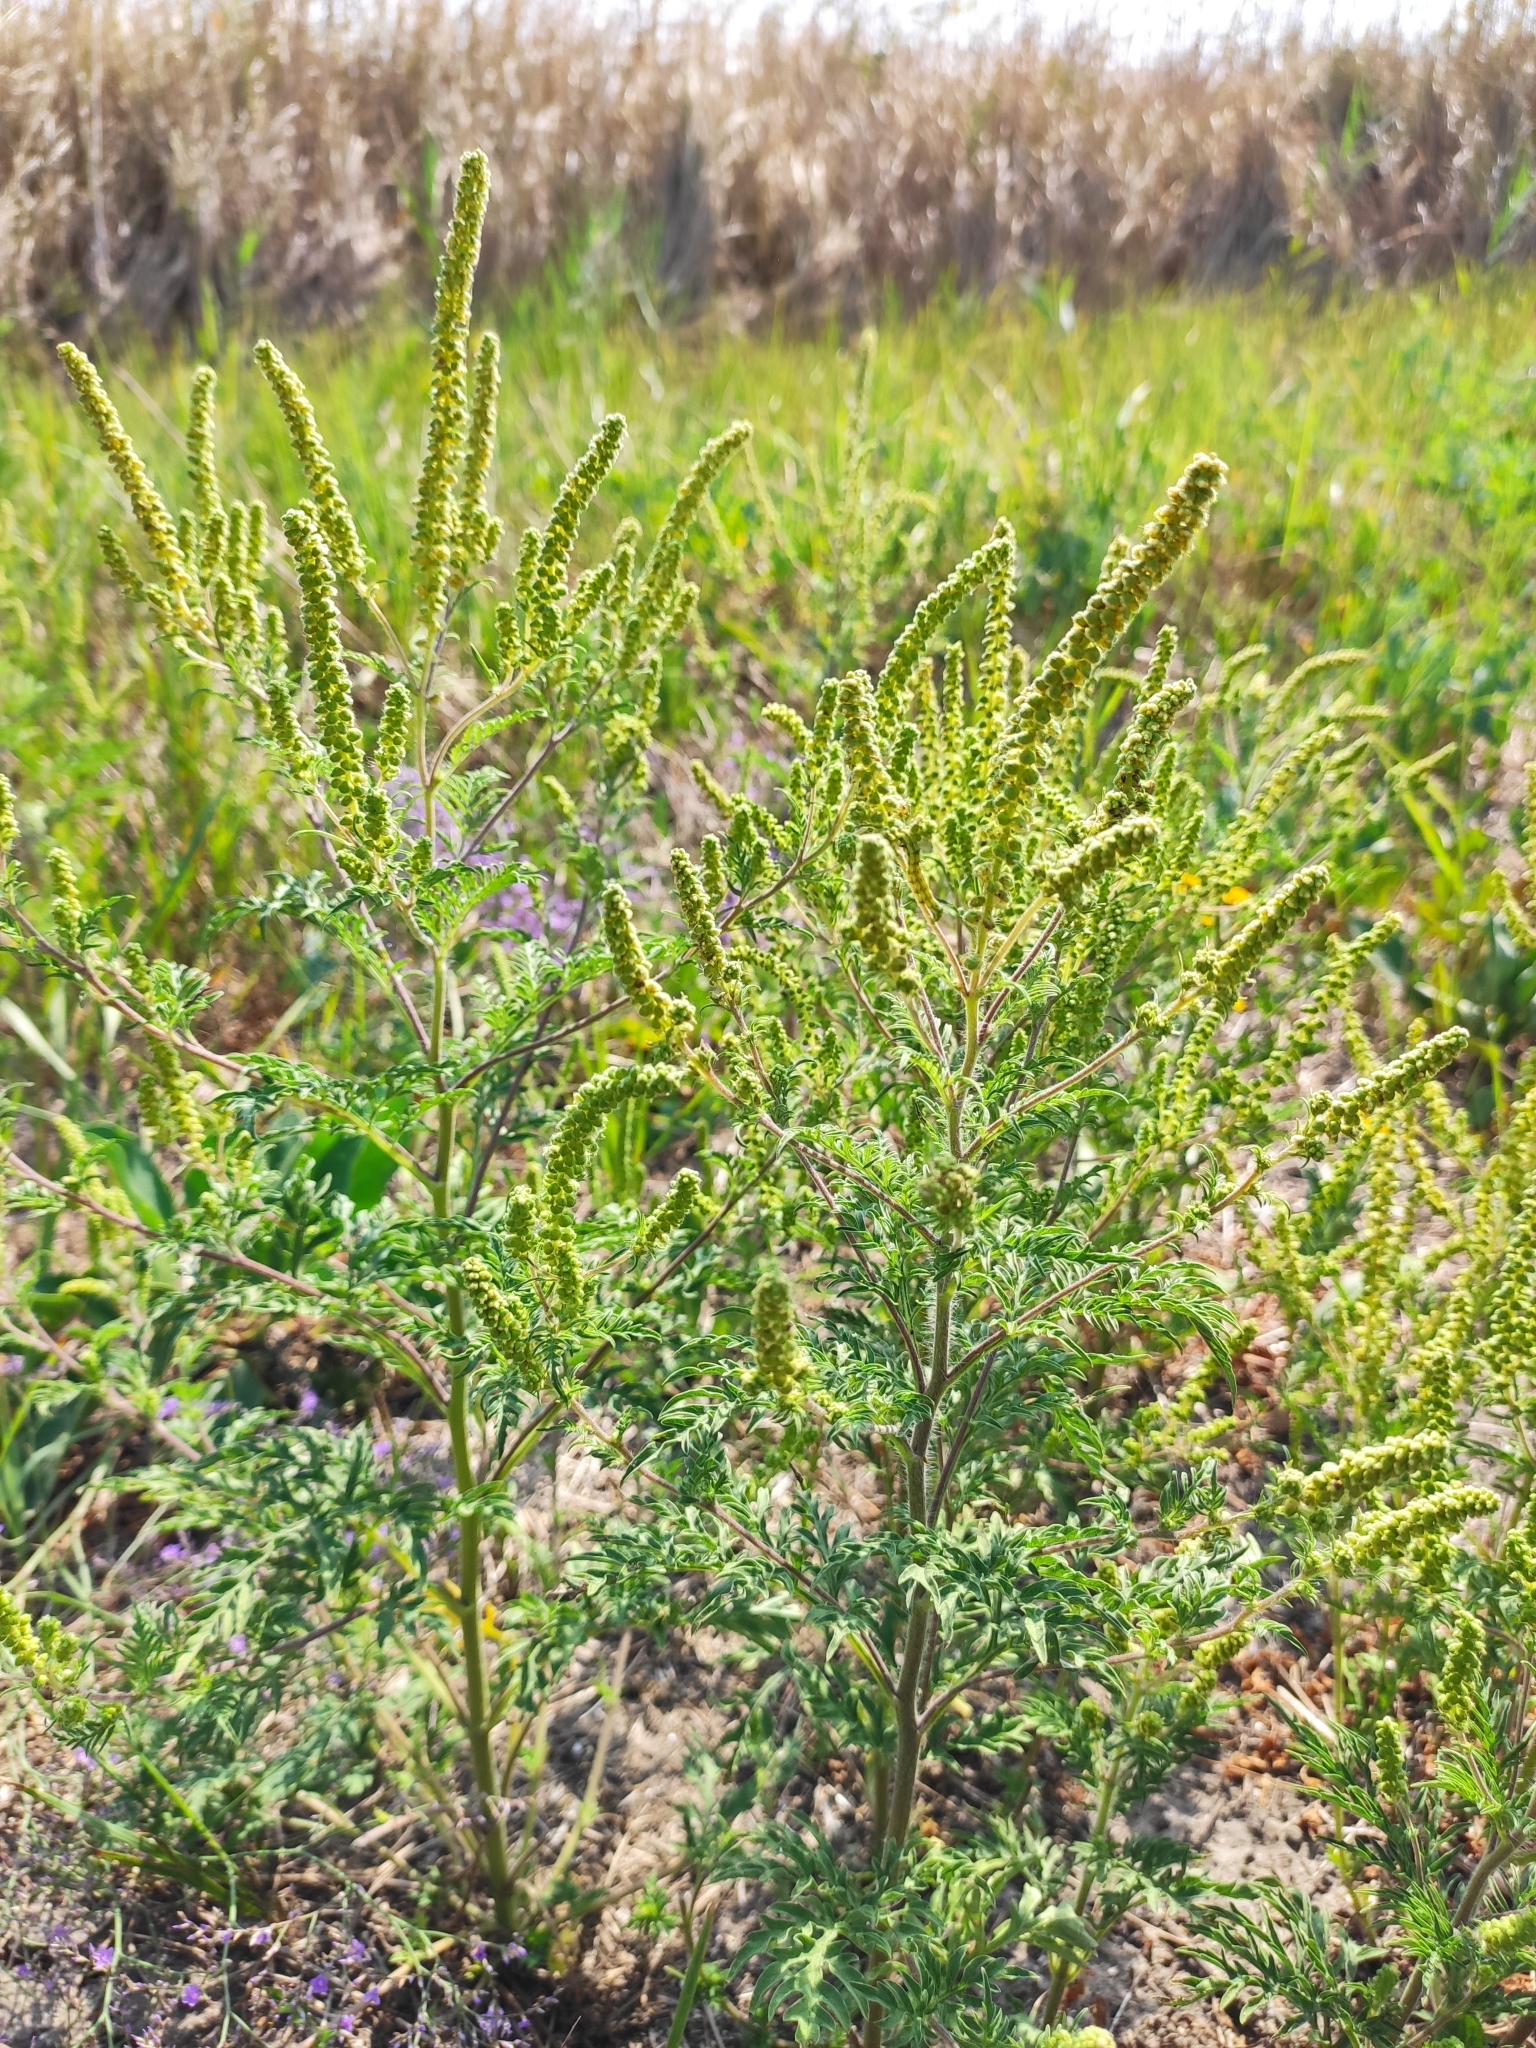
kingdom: Plantae
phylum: Tracheophyta
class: Magnoliopsida
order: Asterales
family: Asteraceae
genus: Ambrosia
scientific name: Ambrosia artemisiifolia
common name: Annual ragweed
